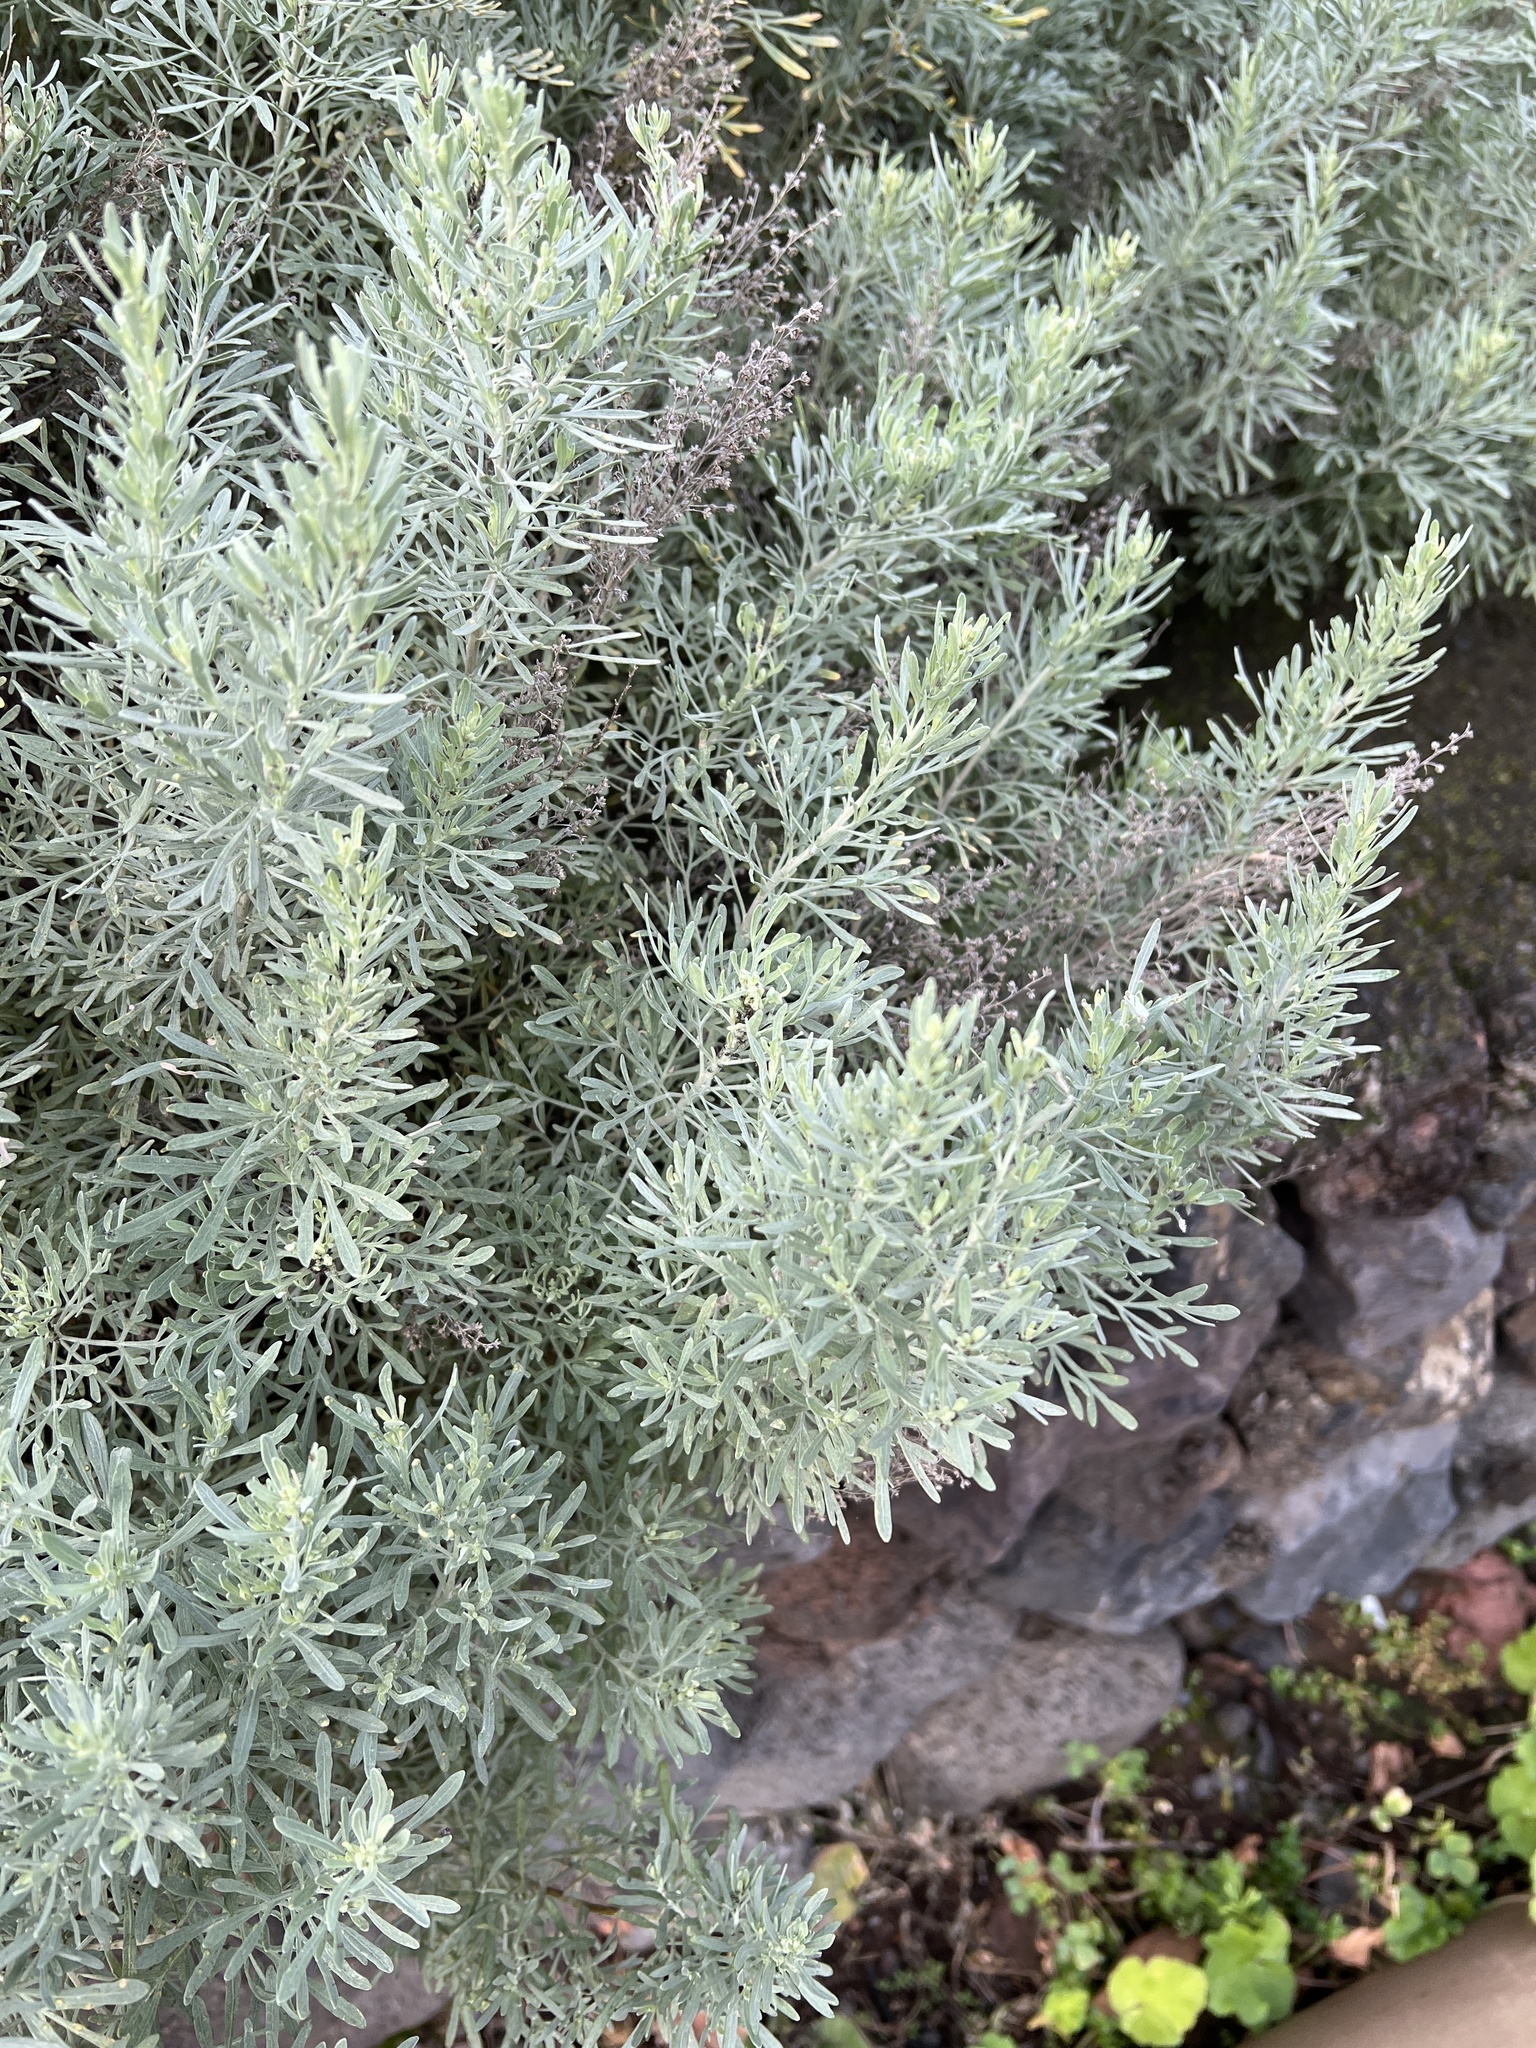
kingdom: Plantae
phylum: Tracheophyta
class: Magnoliopsida
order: Asterales
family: Asteraceae
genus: Artemisia
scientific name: Artemisia thuscula
